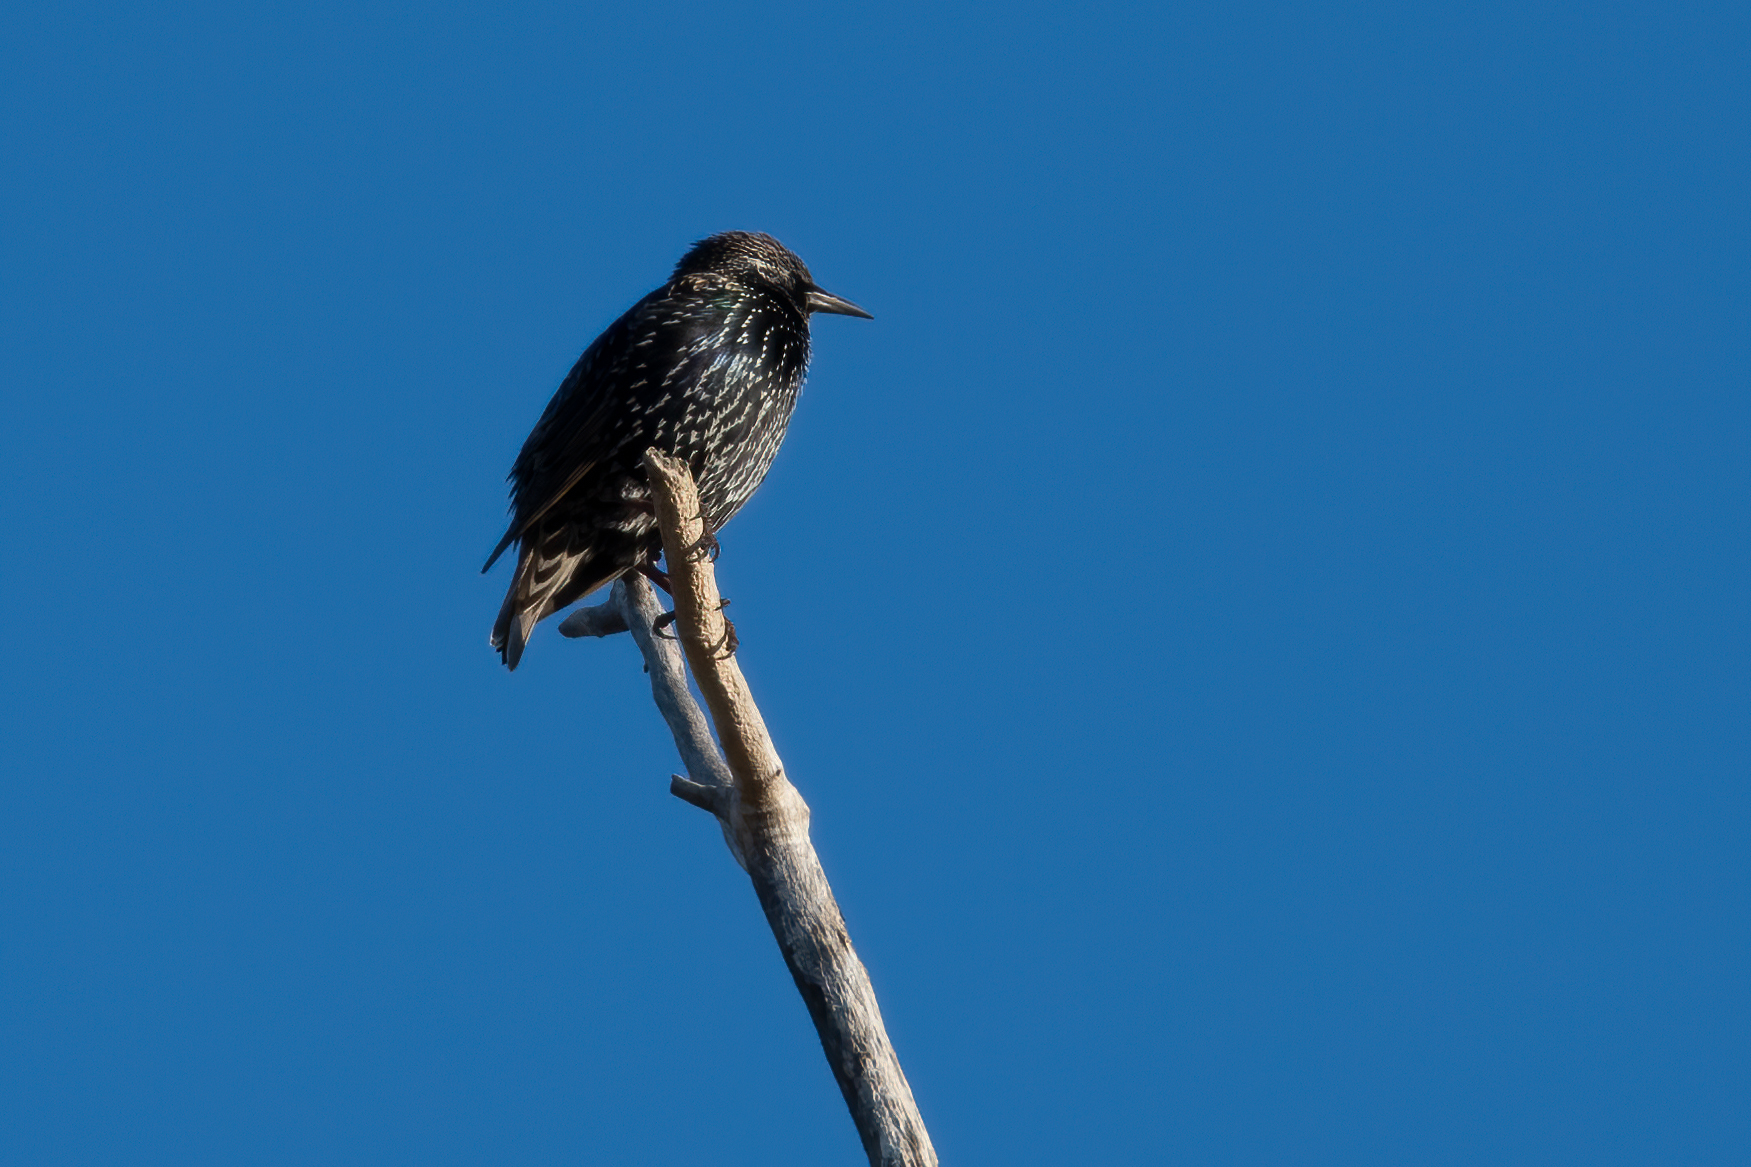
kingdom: Animalia
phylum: Chordata
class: Aves
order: Passeriformes
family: Sturnidae
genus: Sturnus
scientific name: Sturnus vulgaris
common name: Common starling
